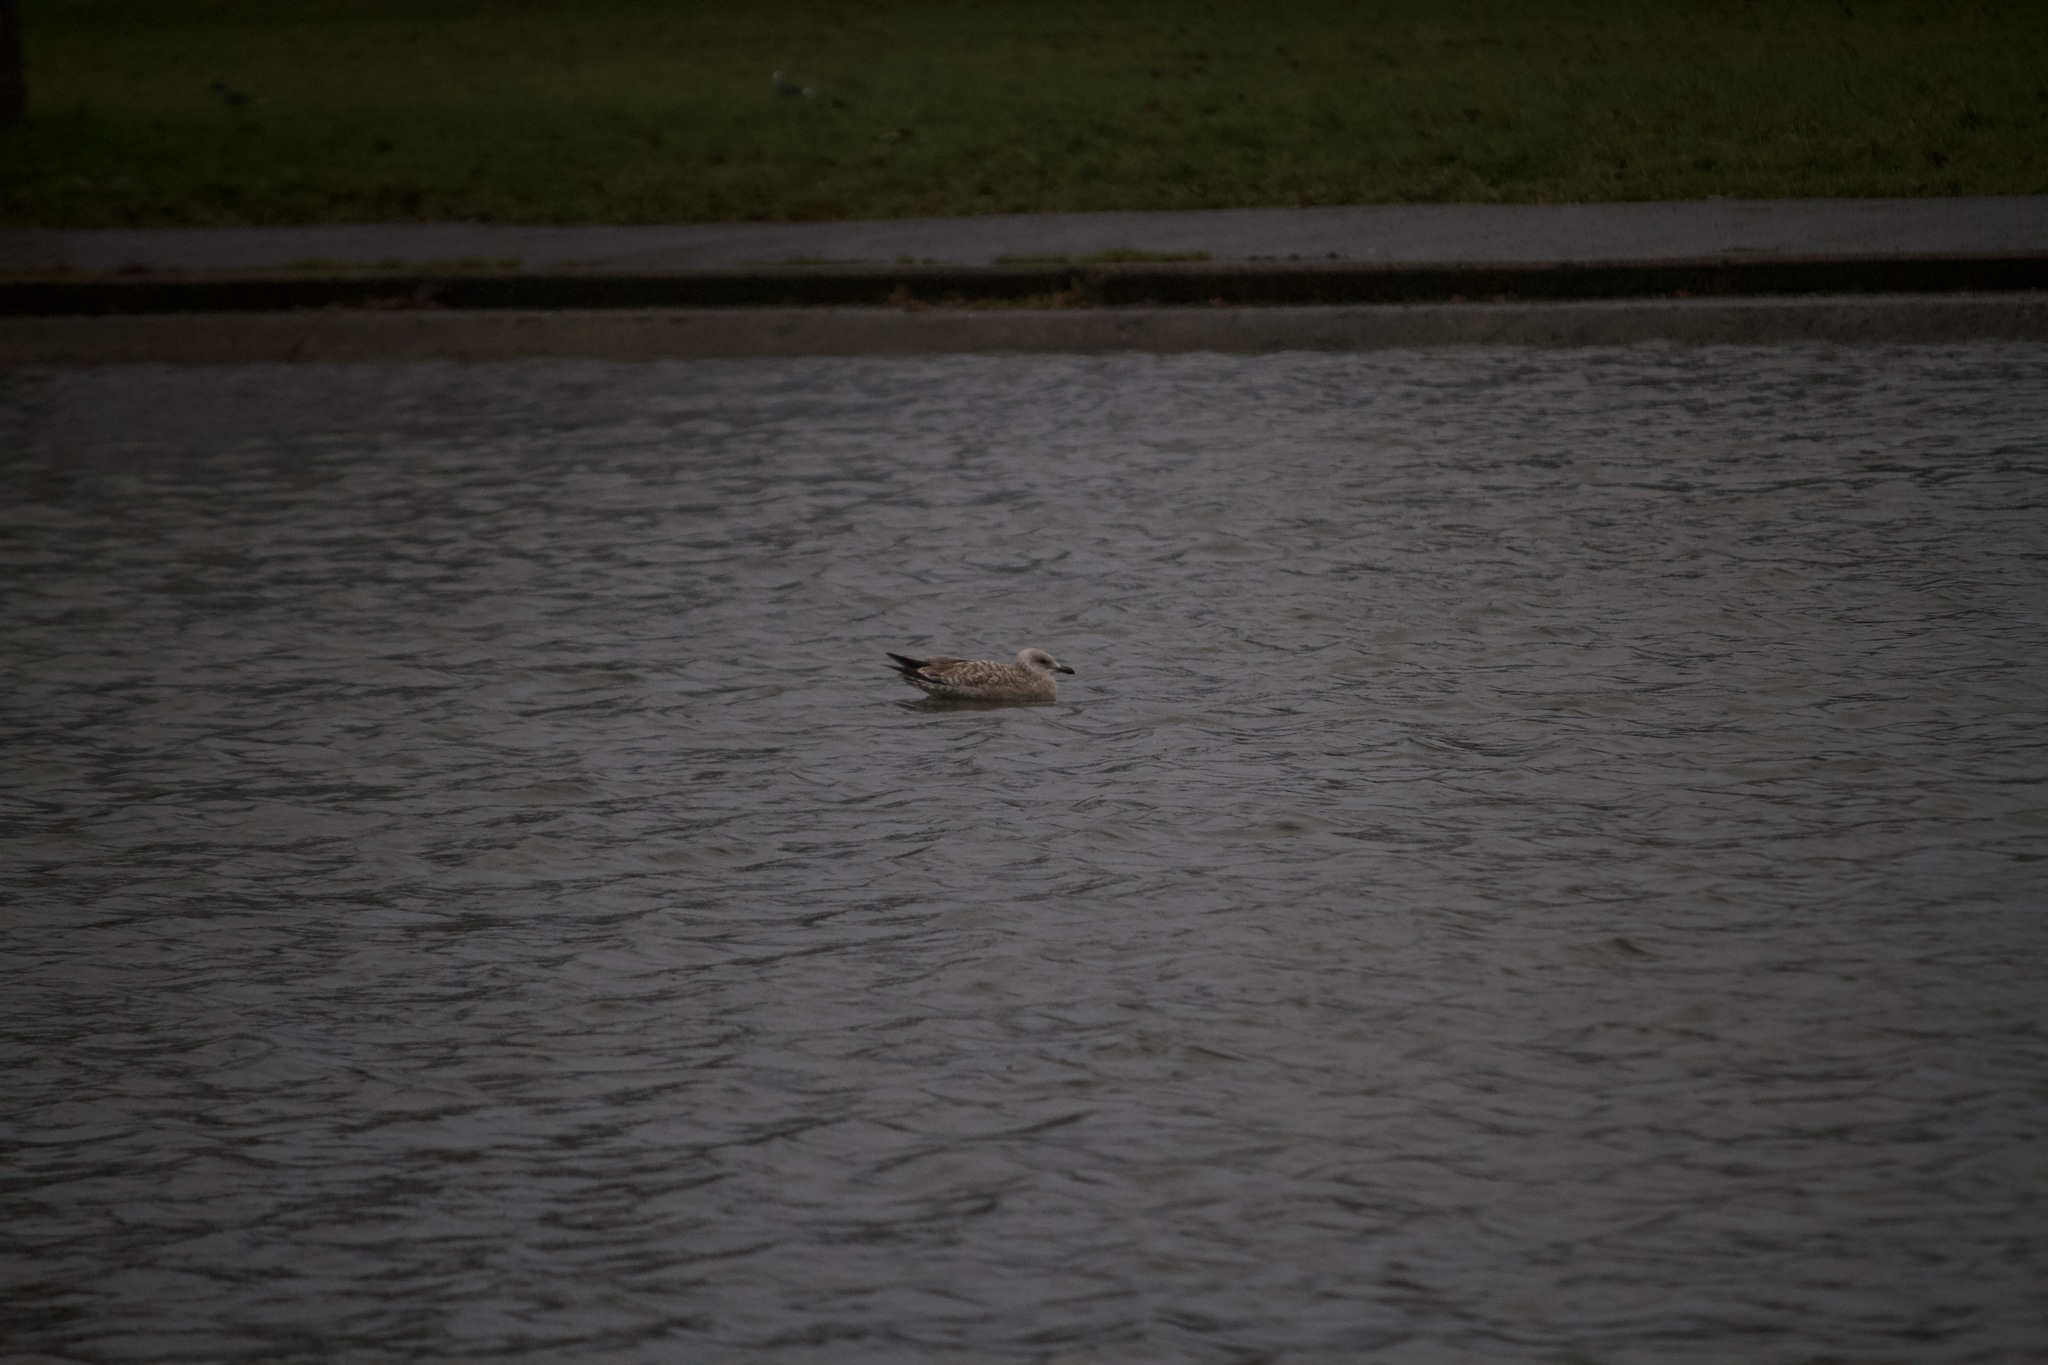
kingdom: Animalia
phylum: Chordata
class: Aves
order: Charadriiformes
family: Laridae
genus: Larus
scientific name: Larus argentatus
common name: Herring gull
